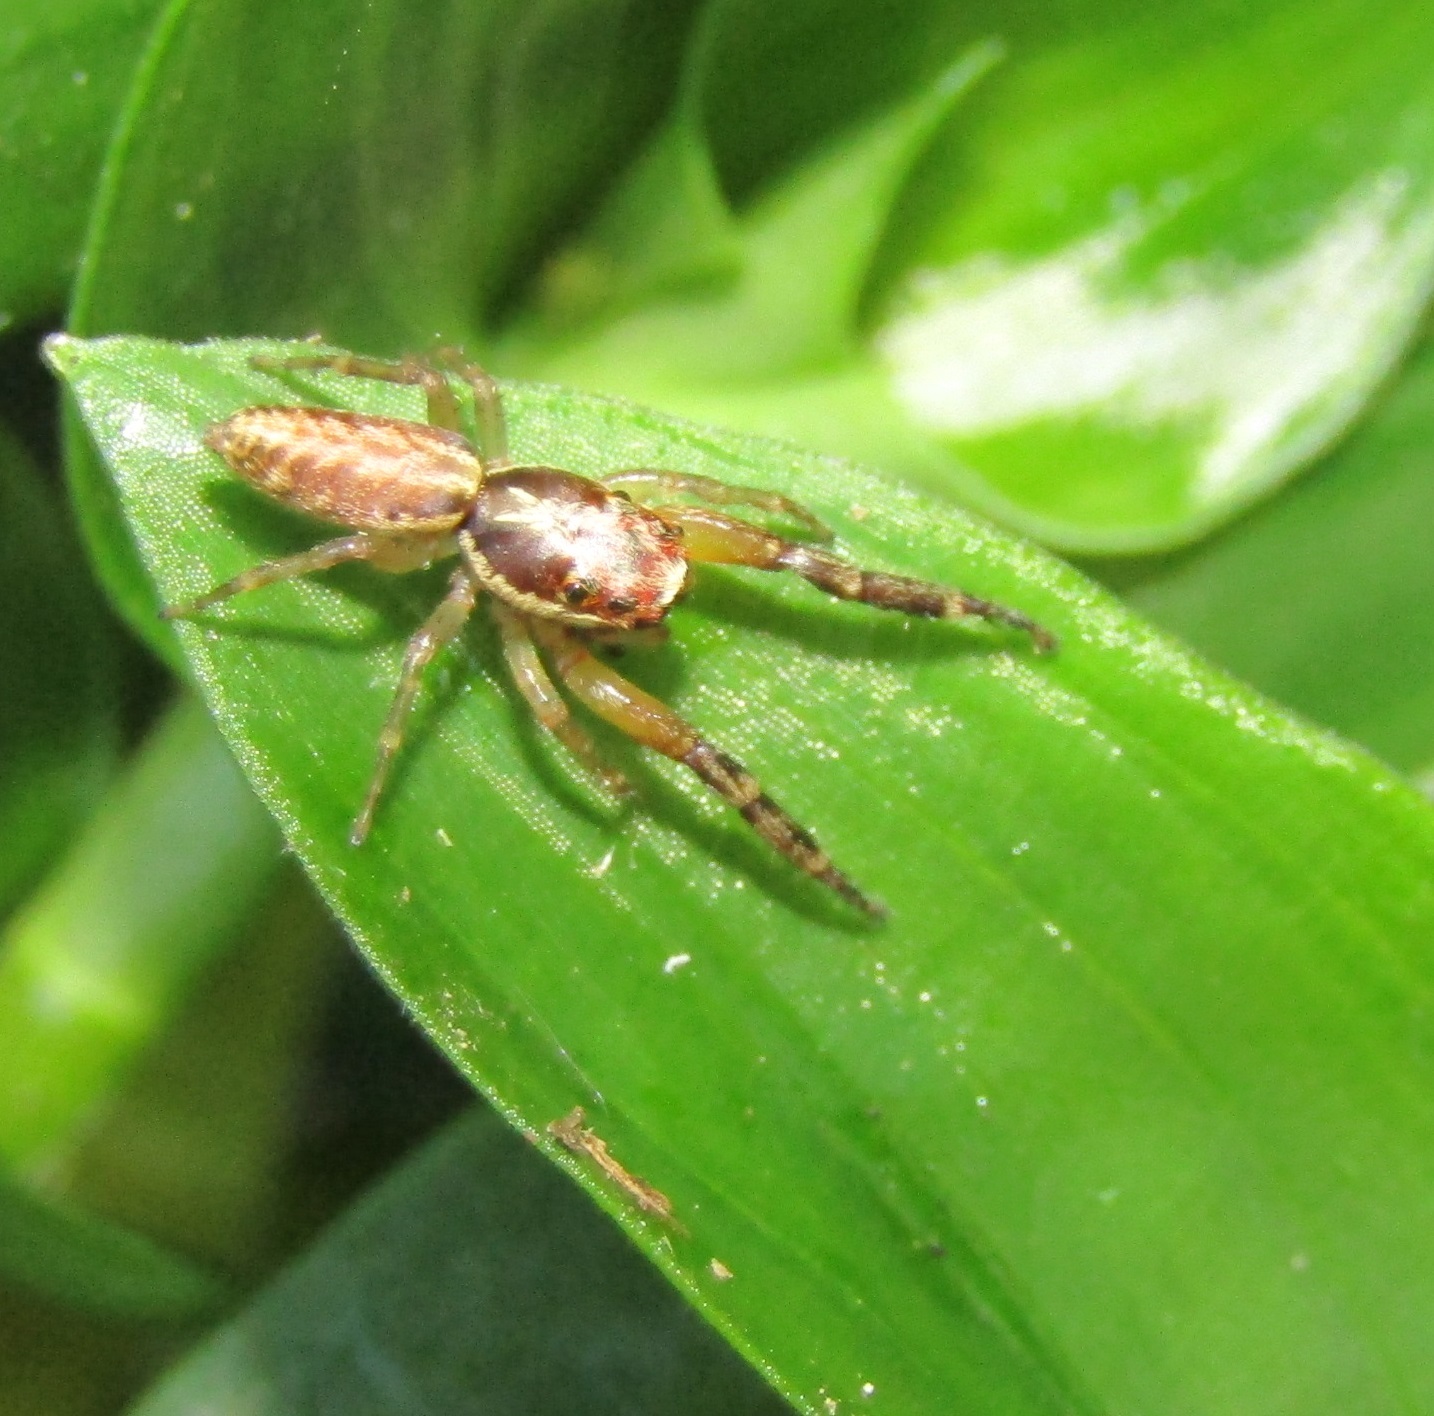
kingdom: Animalia
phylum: Arthropoda
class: Arachnida
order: Araneae
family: Salticidae
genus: Trite
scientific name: Trite mustilina
